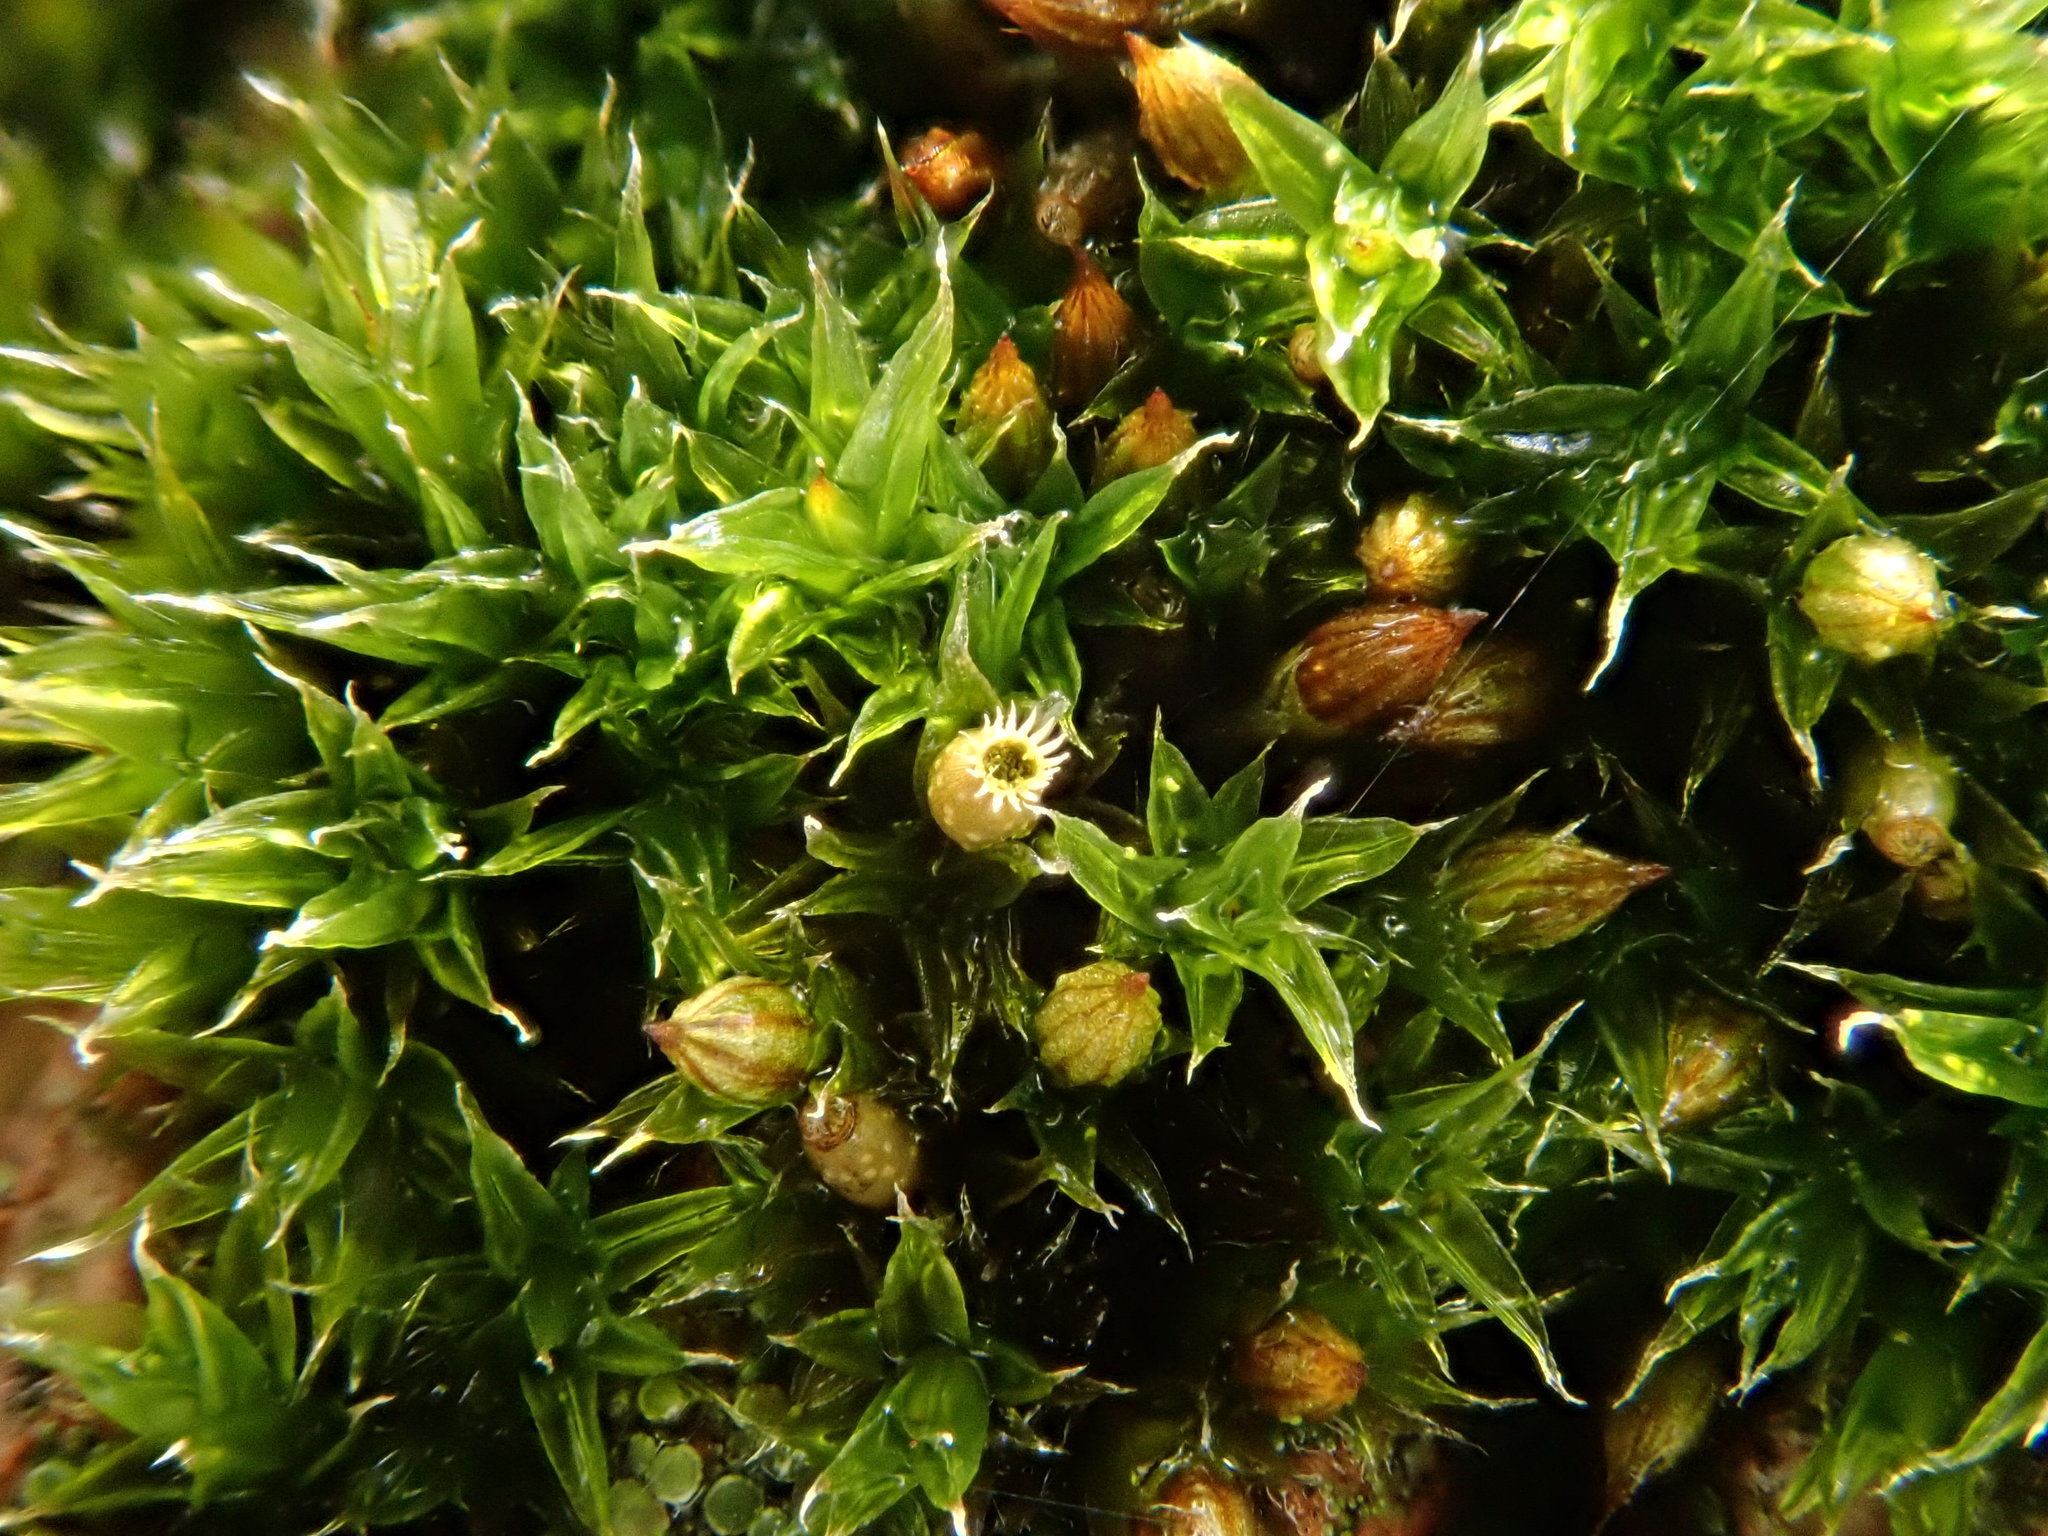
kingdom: Plantae
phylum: Bryophyta
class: Bryopsida
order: Orthotrichales
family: Orthotrichaceae
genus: Orthotrichum
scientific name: Orthotrichum diaphanum
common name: White-tipped bristle-moss
